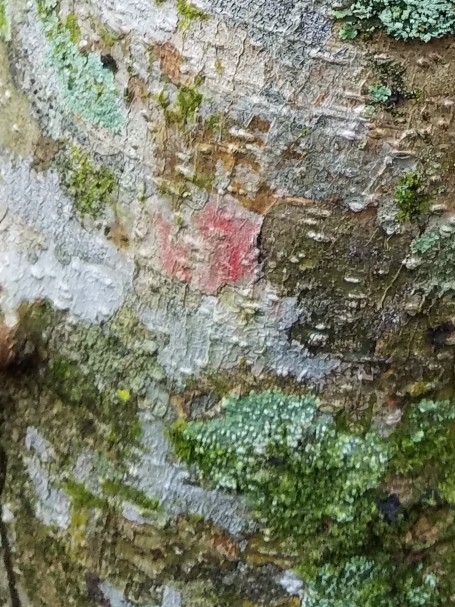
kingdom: Fungi
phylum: Ascomycota
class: Arthoniomycetes
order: Arthoniales
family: Arthoniaceae
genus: Herpothallon
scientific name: Herpothallon rubrocinctum
